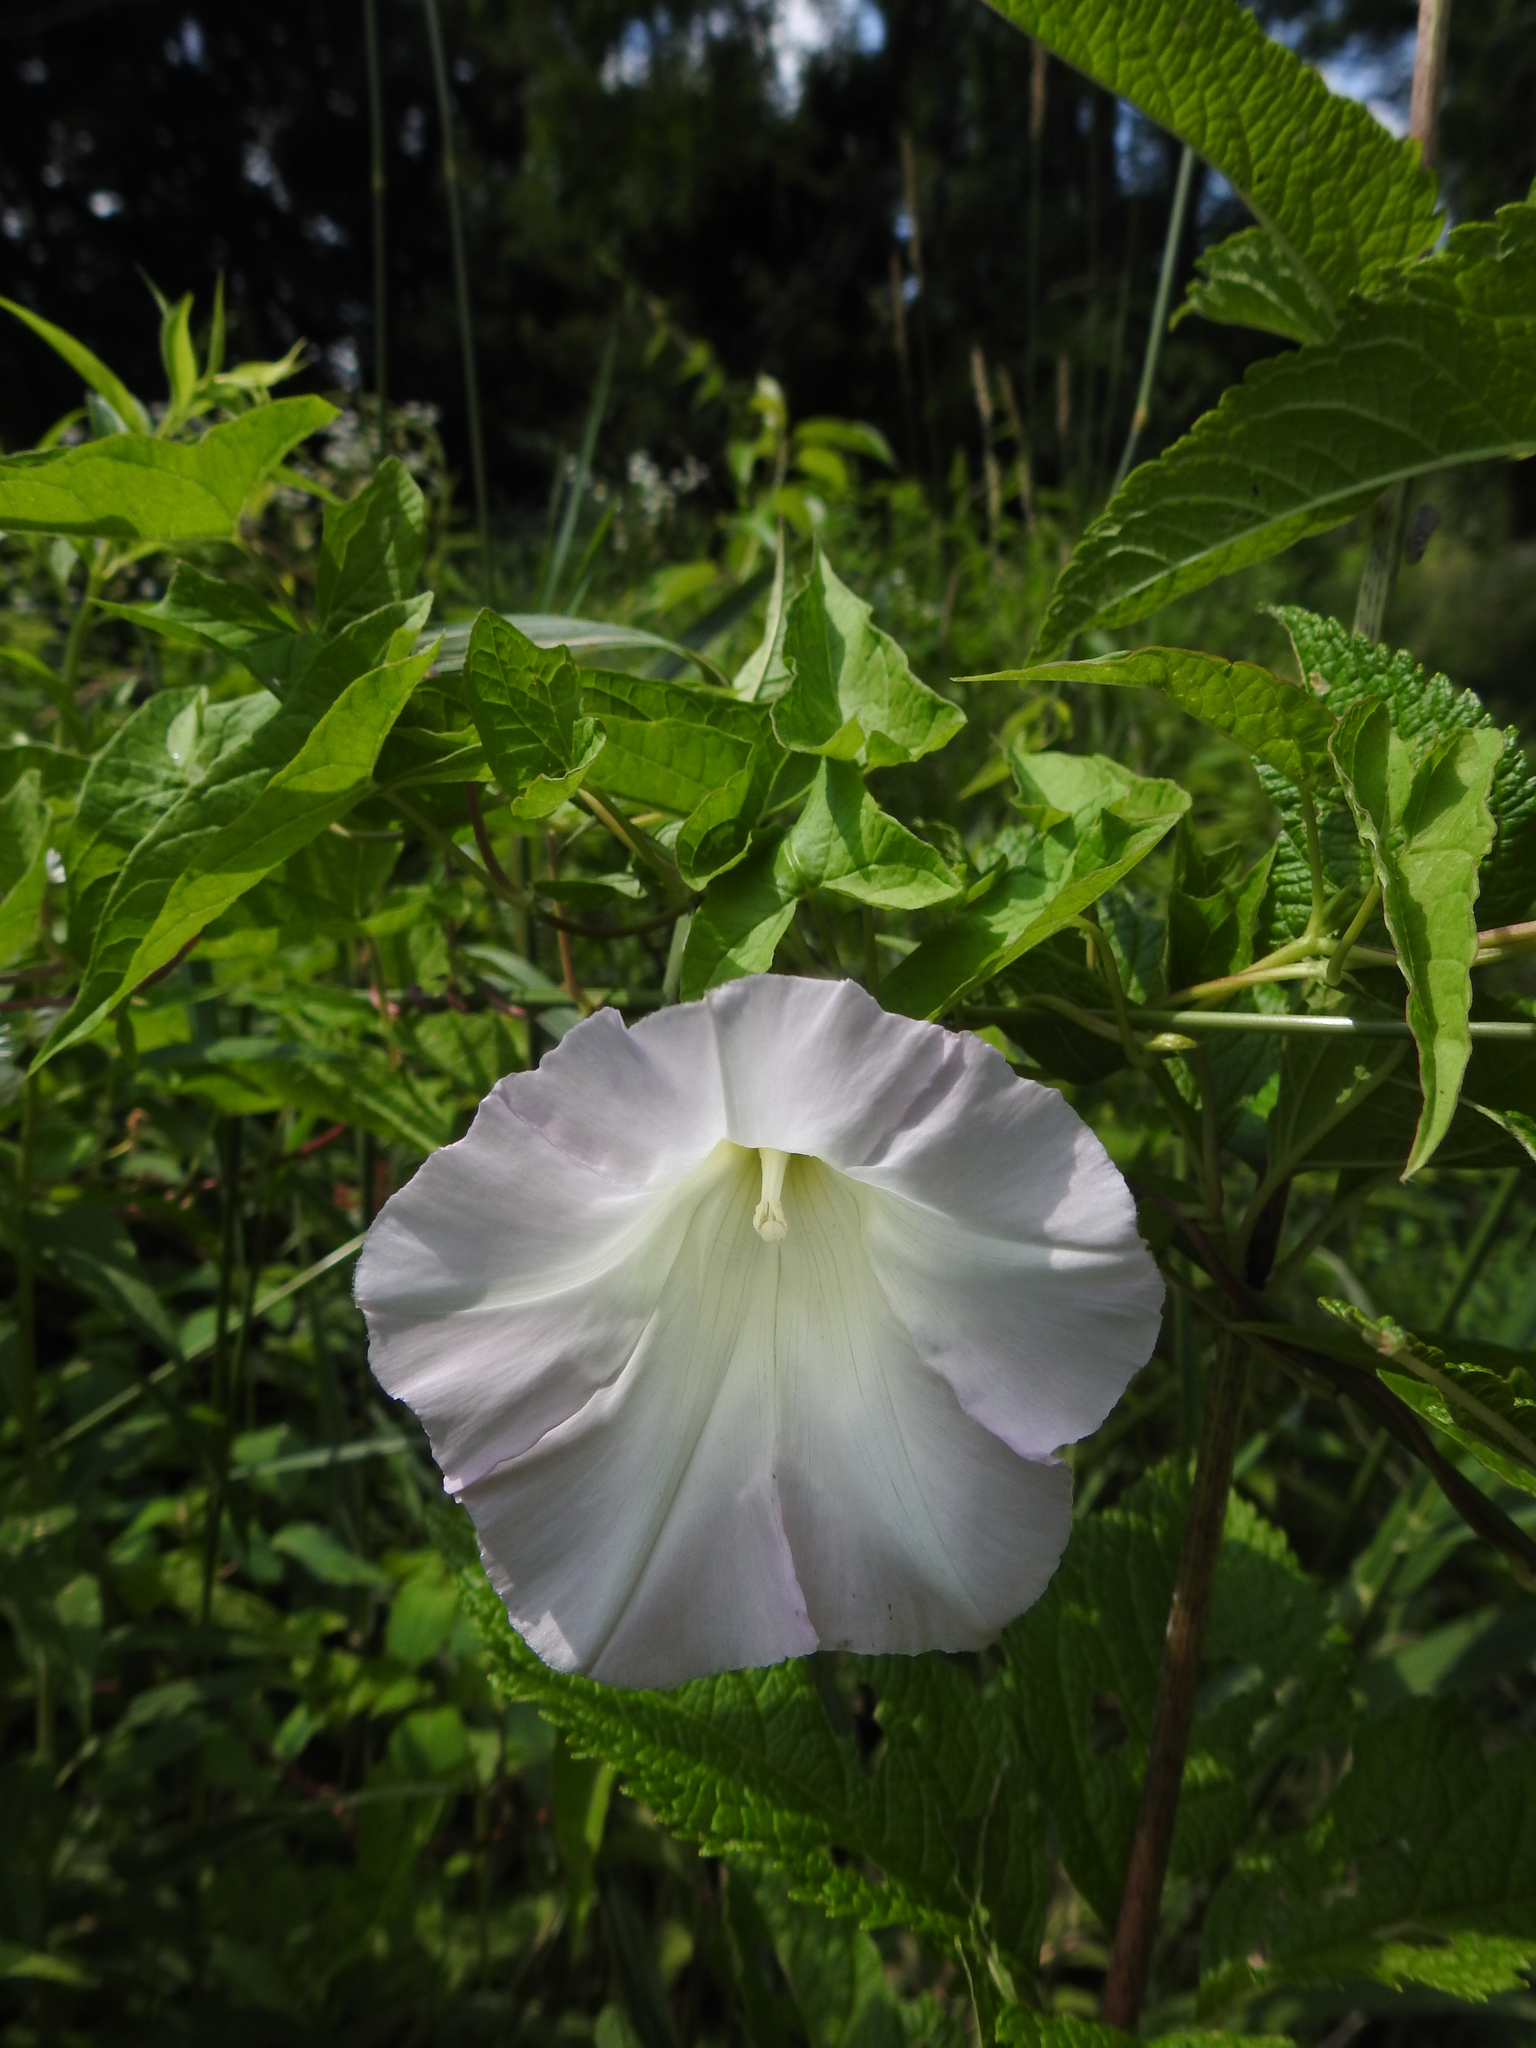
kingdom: Plantae
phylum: Tracheophyta
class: Magnoliopsida
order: Solanales
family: Convolvulaceae
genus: Calystegia
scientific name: Calystegia sepium
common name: Hedge bindweed
